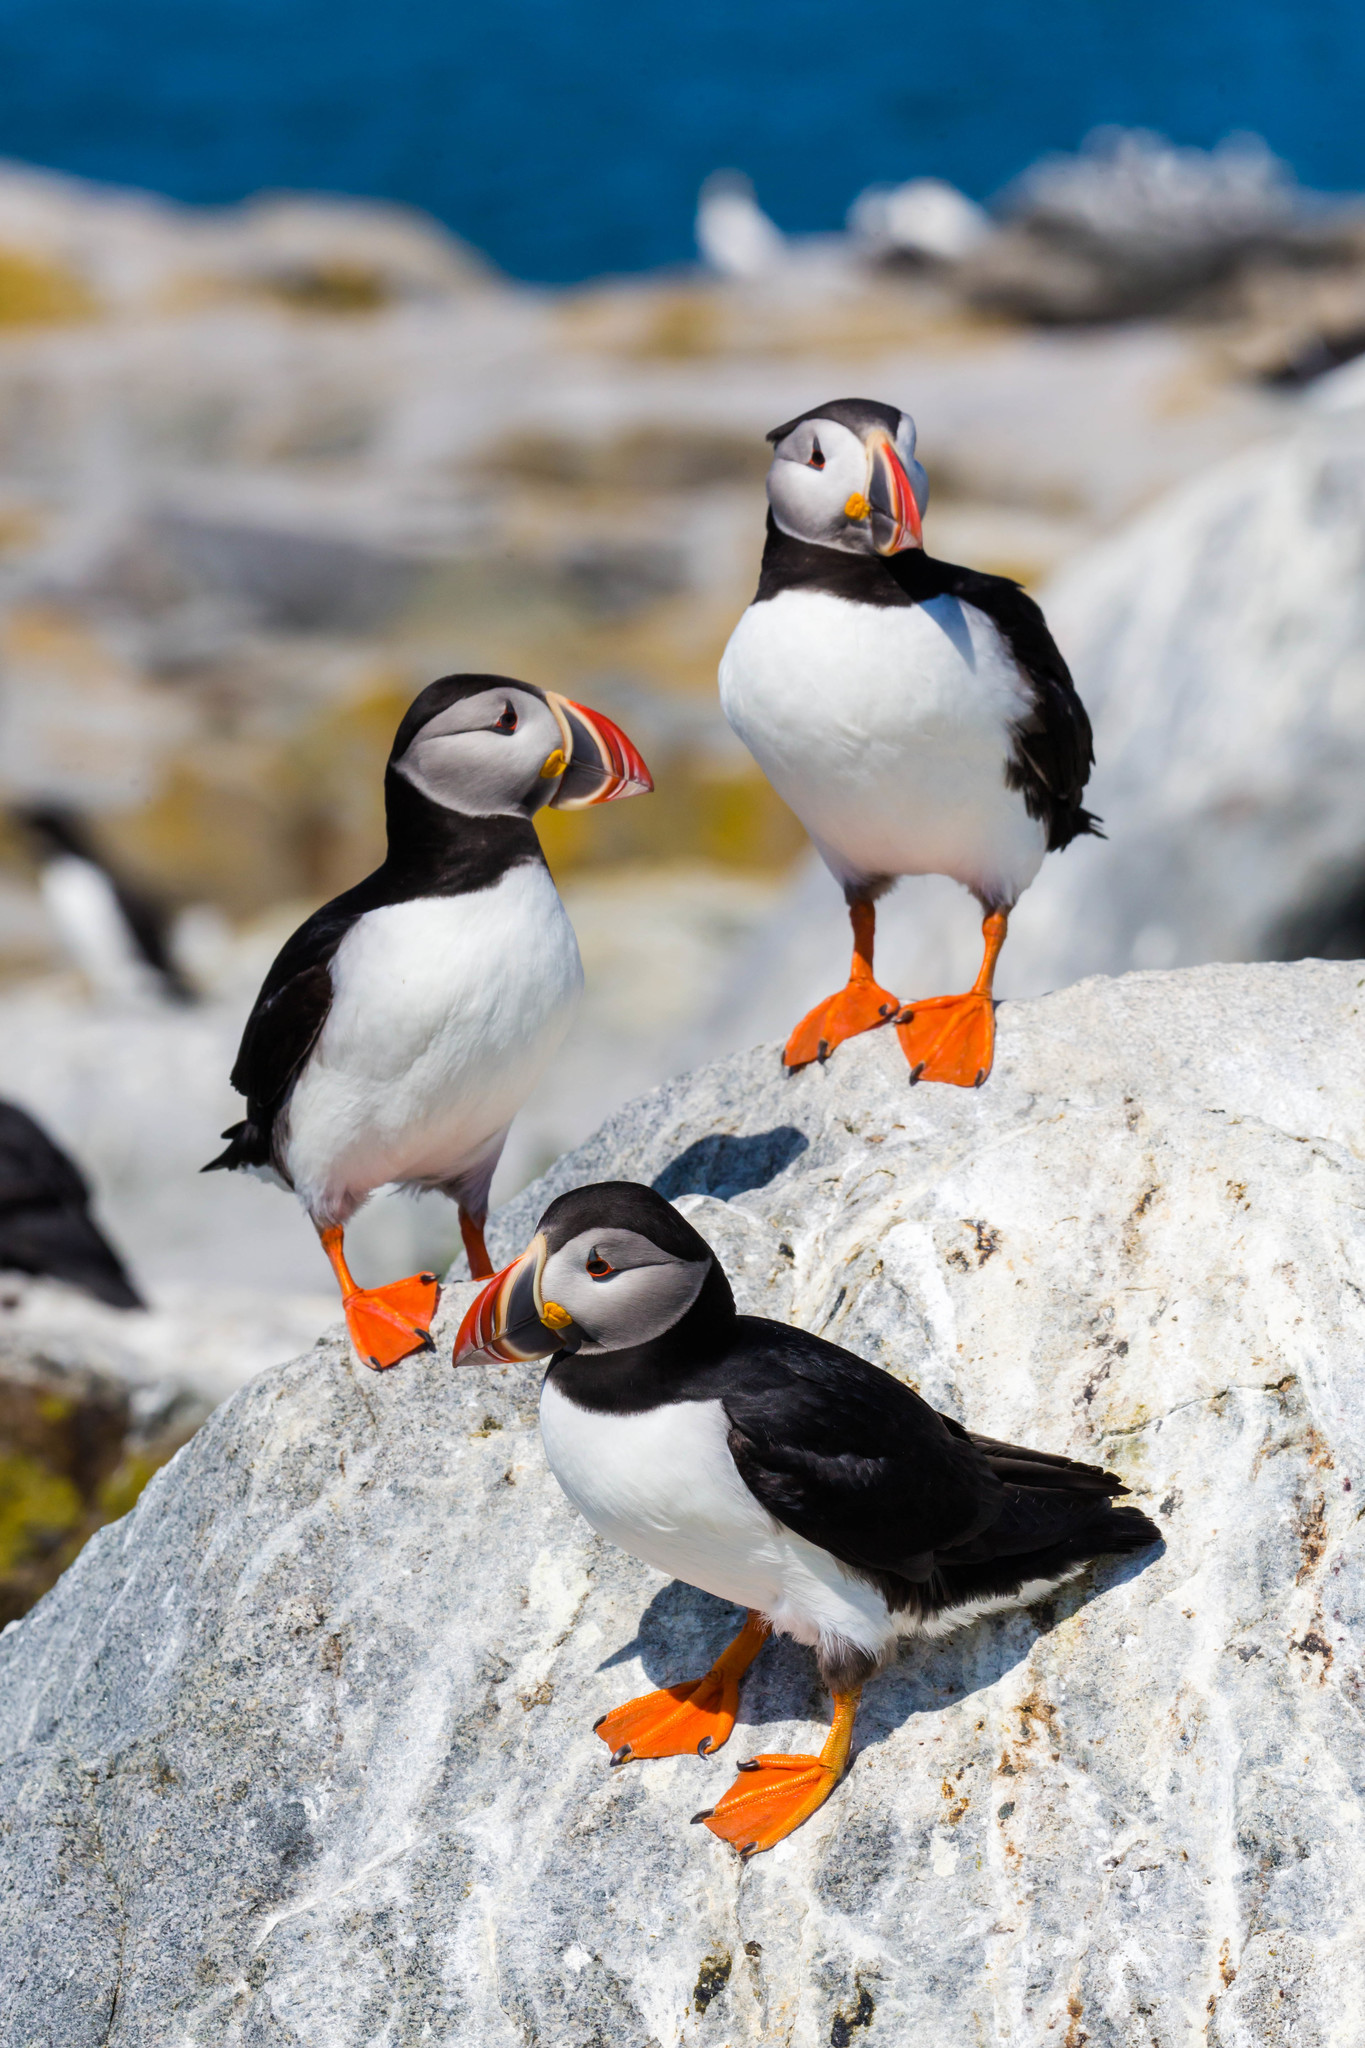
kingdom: Animalia
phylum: Chordata
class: Aves
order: Charadriiformes
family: Alcidae
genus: Fratercula
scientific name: Fratercula arctica
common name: Atlantic puffin
